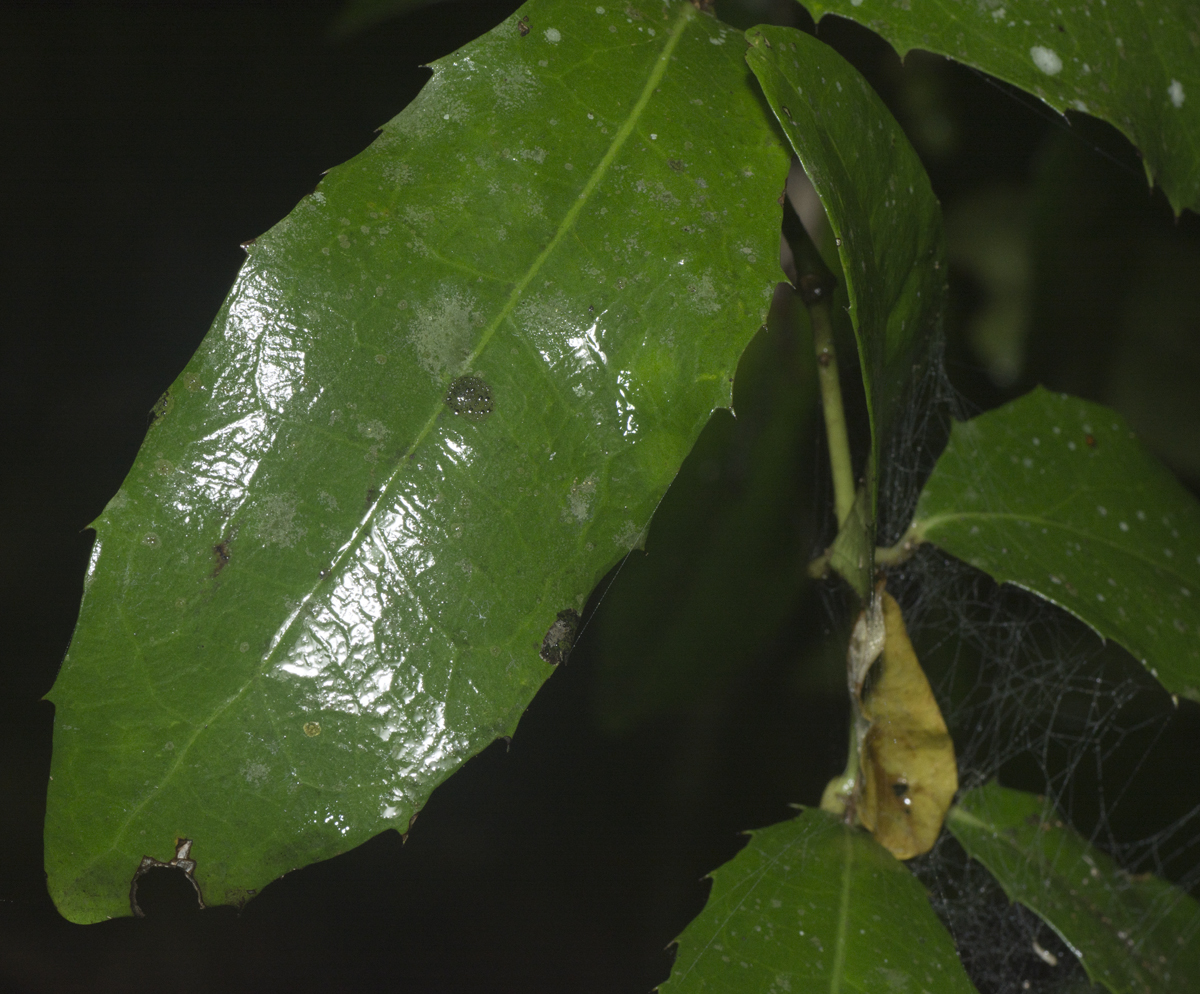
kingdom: Plantae
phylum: Tracheophyta
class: Magnoliopsida
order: Laurales
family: Monimiaceae
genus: Wilkiea
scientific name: Wilkiea macrophylla
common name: Large-leaved wilkiea
